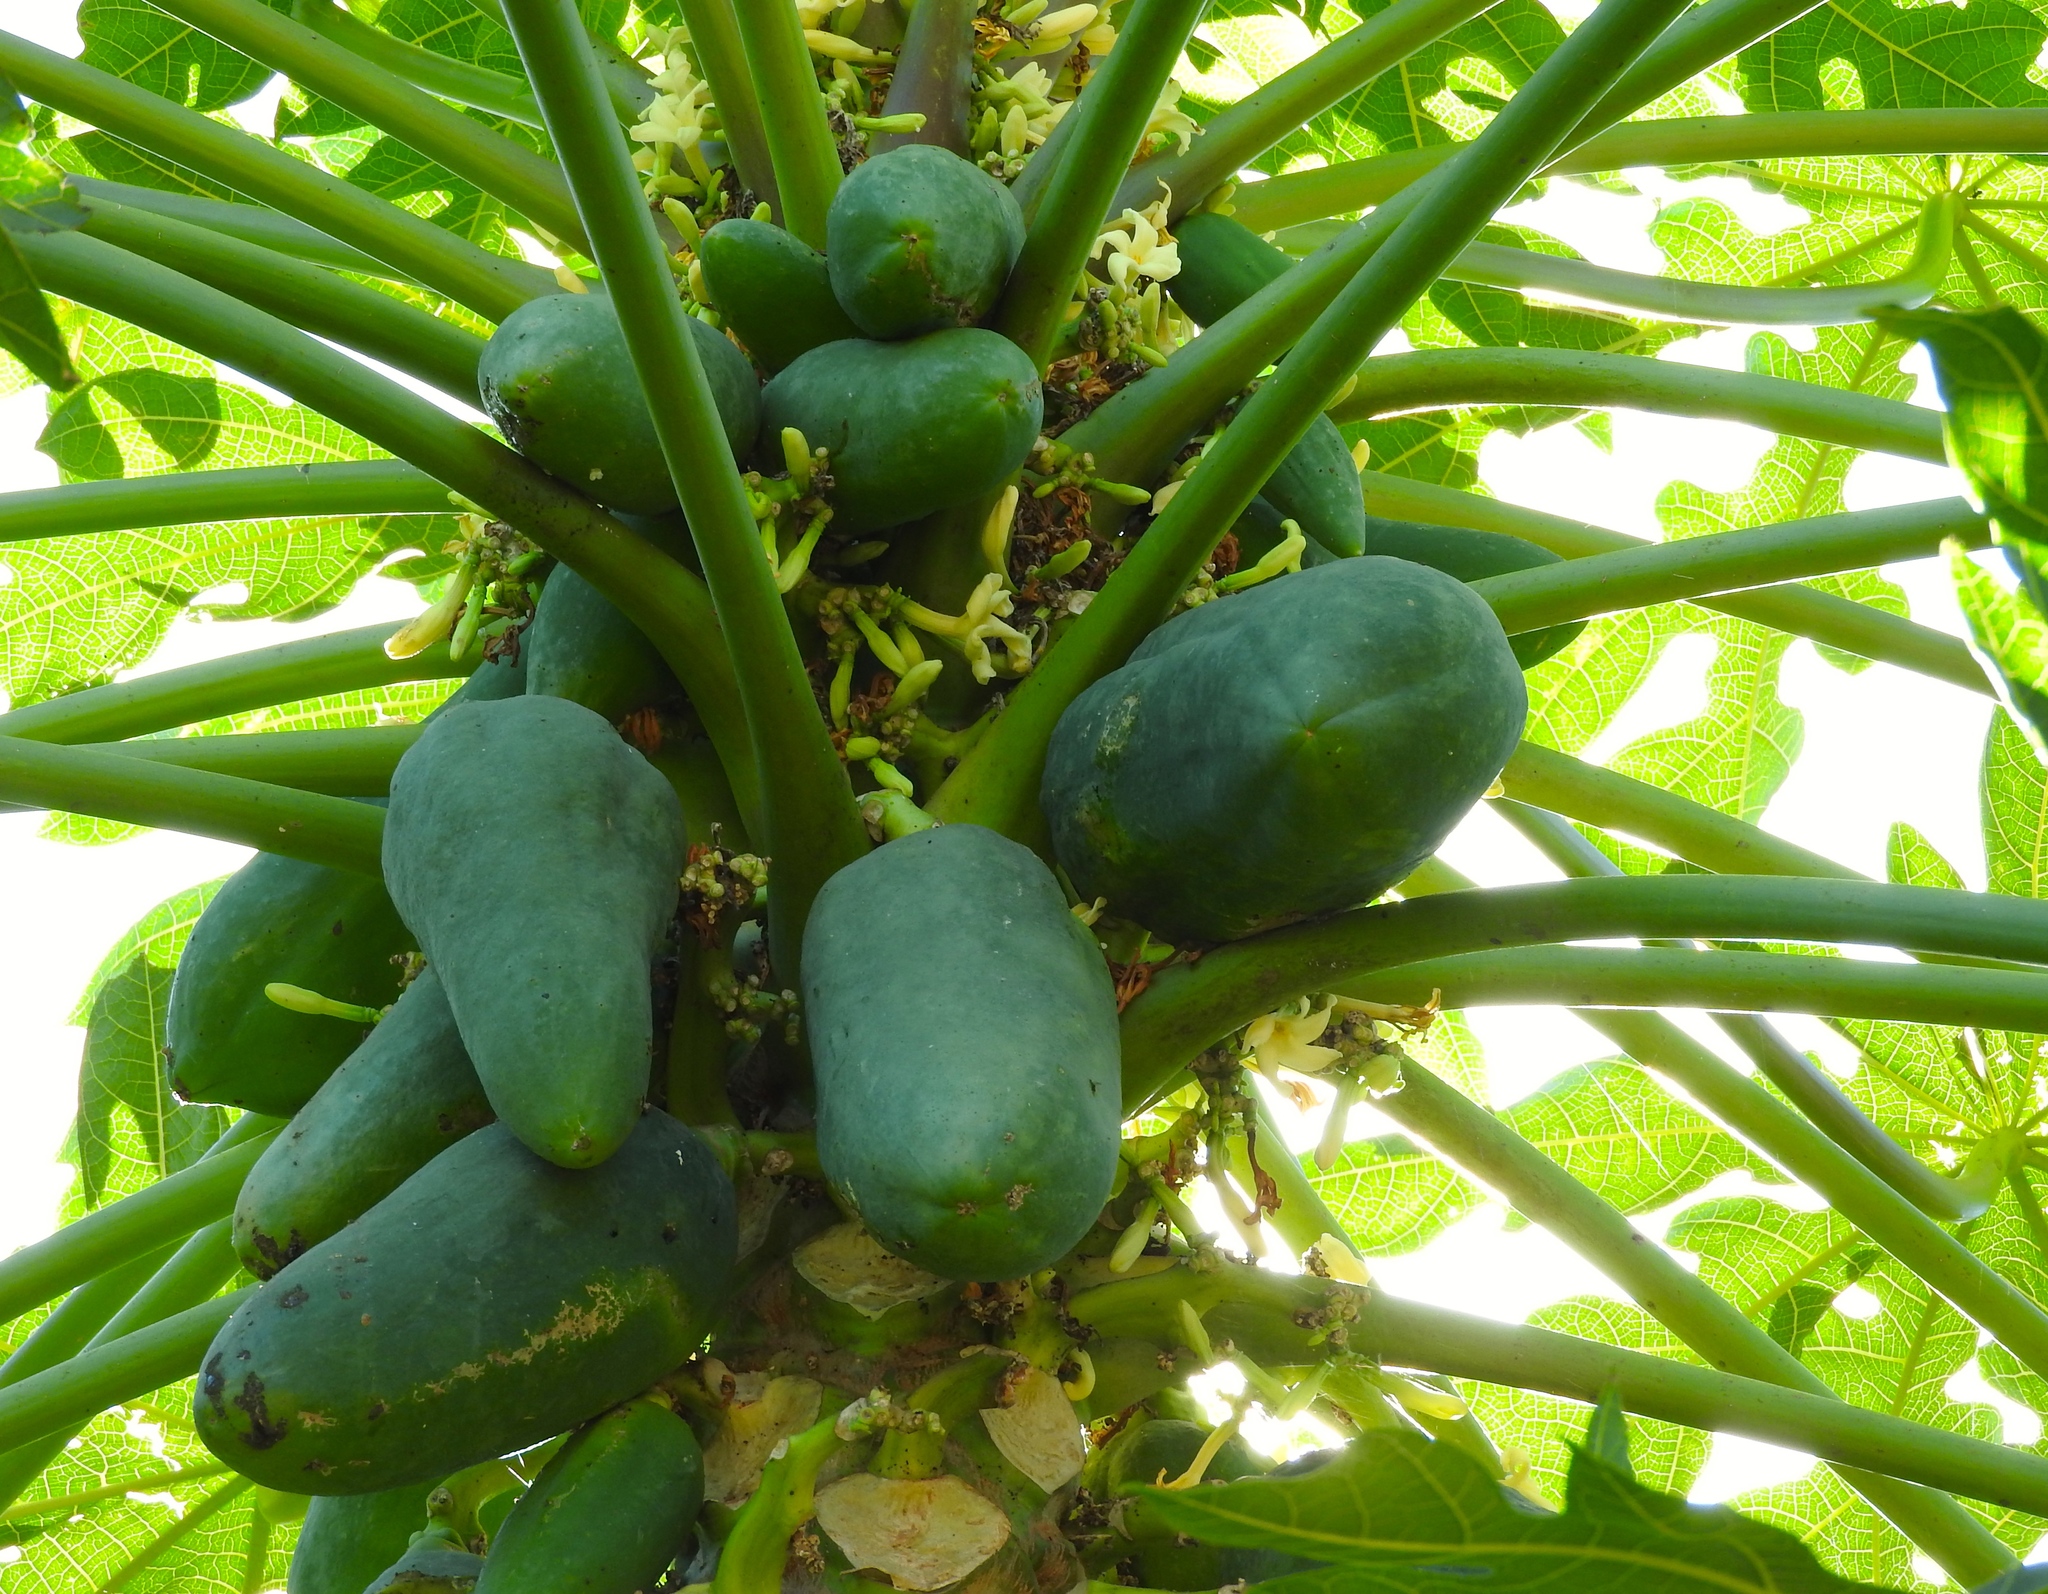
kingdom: Plantae
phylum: Tracheophyta
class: Magnoliopsida
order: Brassicales
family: Caricaceae
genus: Carica
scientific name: Carica papaya
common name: Papaya
